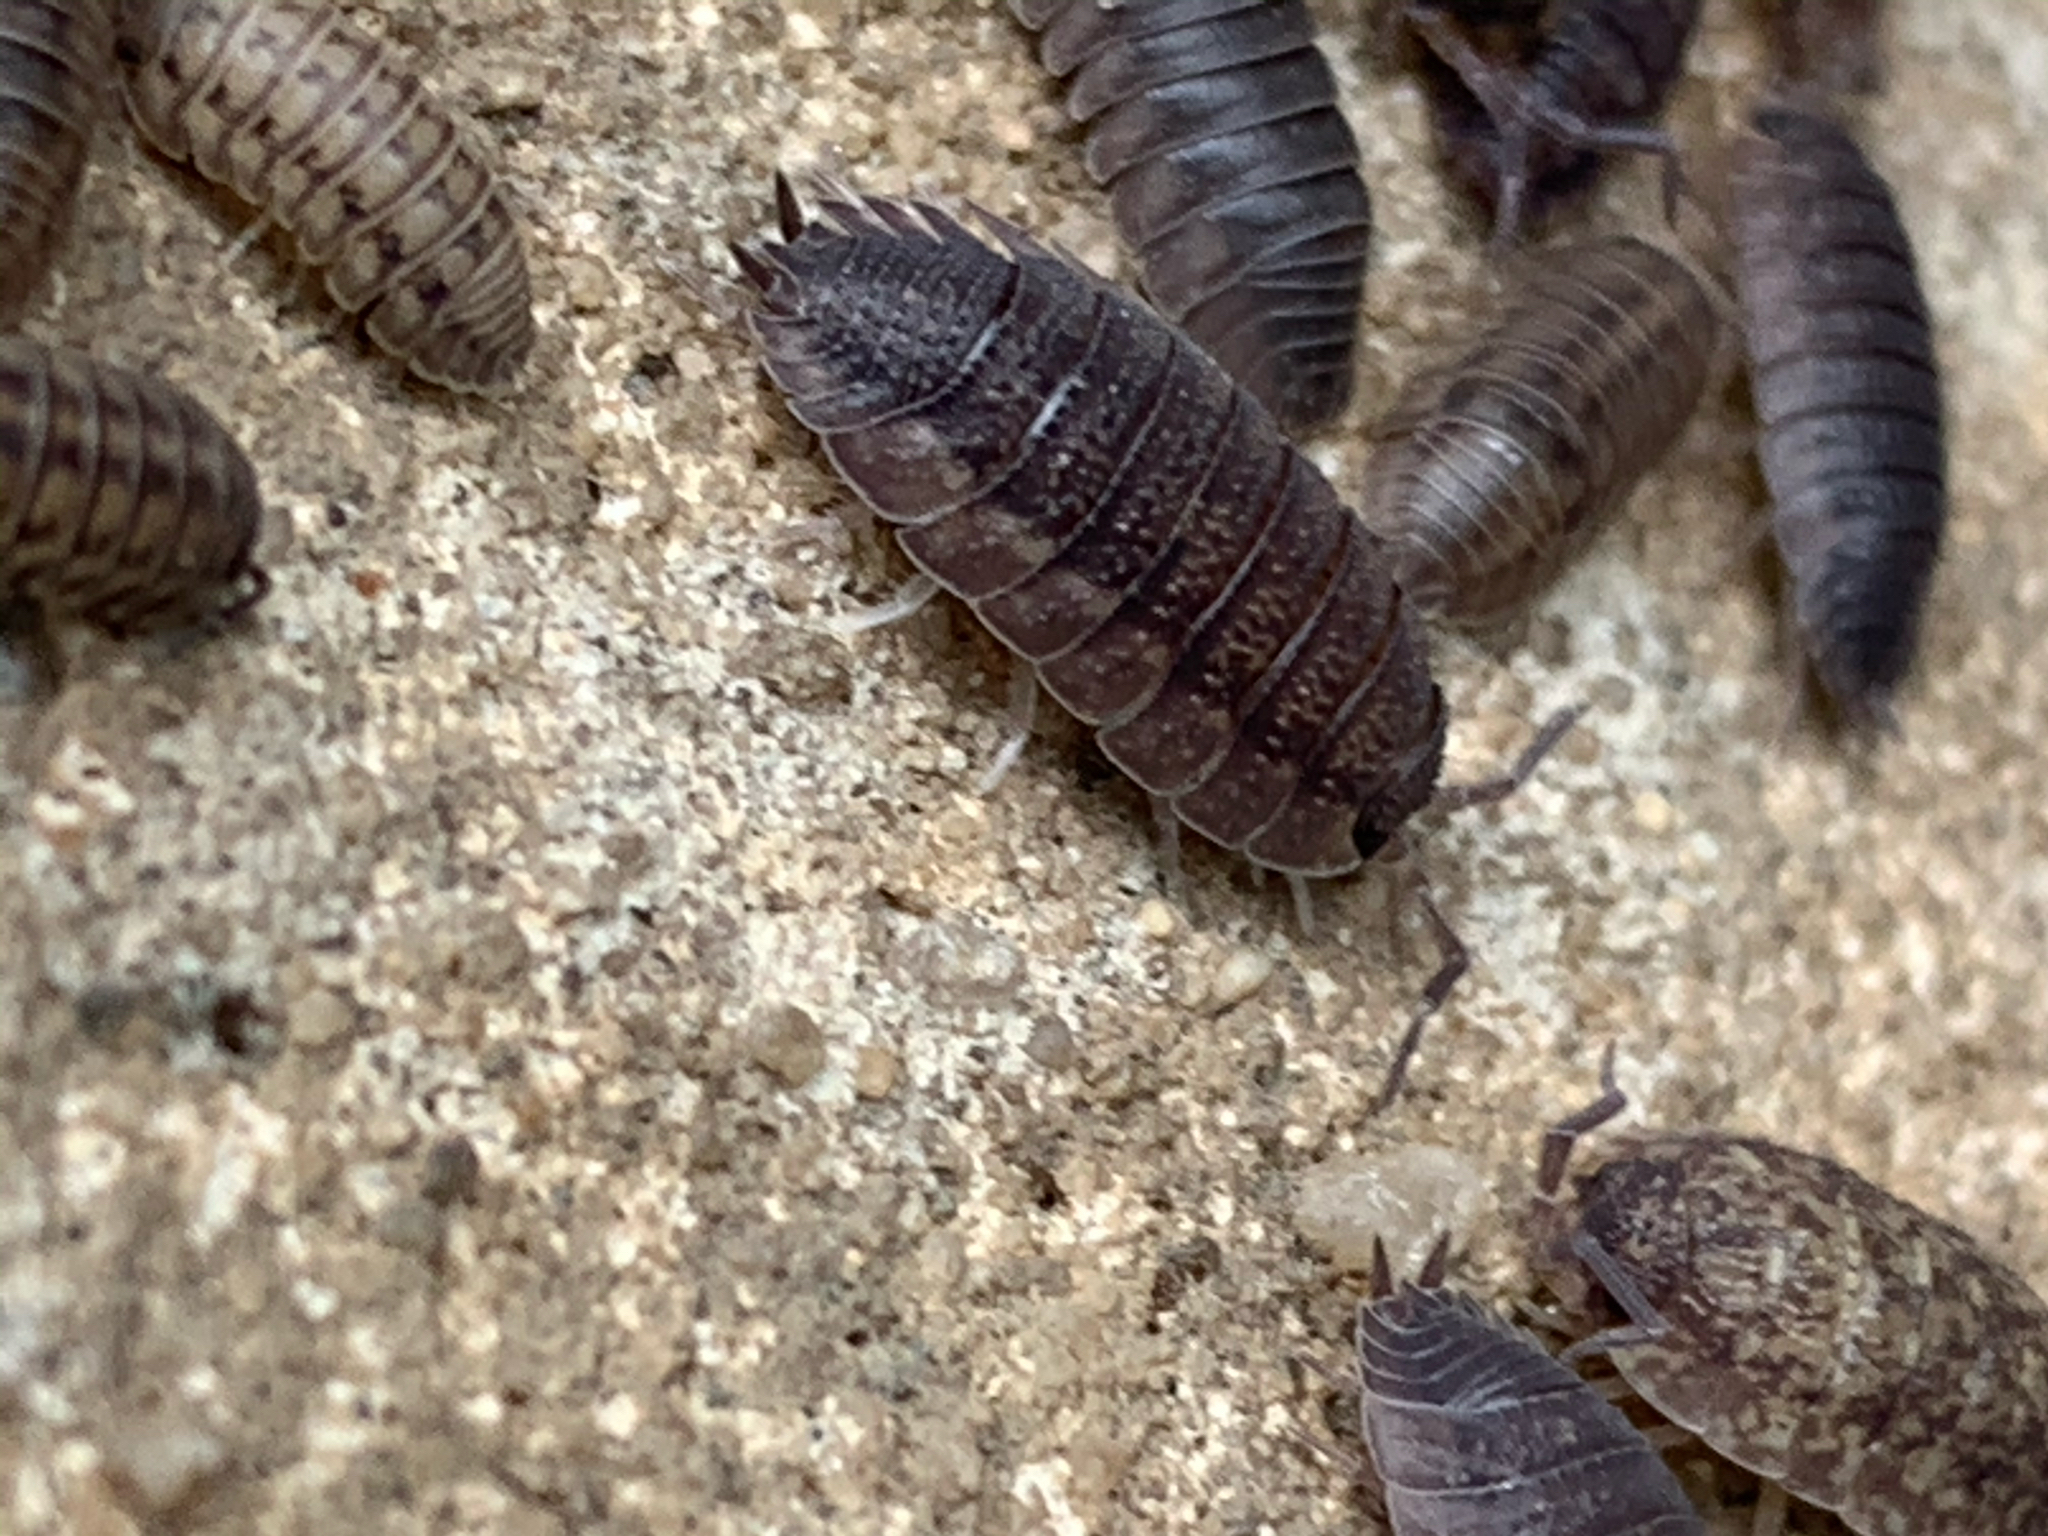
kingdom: Animalia
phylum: Arthropoda
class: Malacostraca
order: Isopoda
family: Porcellionidae
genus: Porcellio
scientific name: Porcellio scaber
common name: Common rough woodlouse
